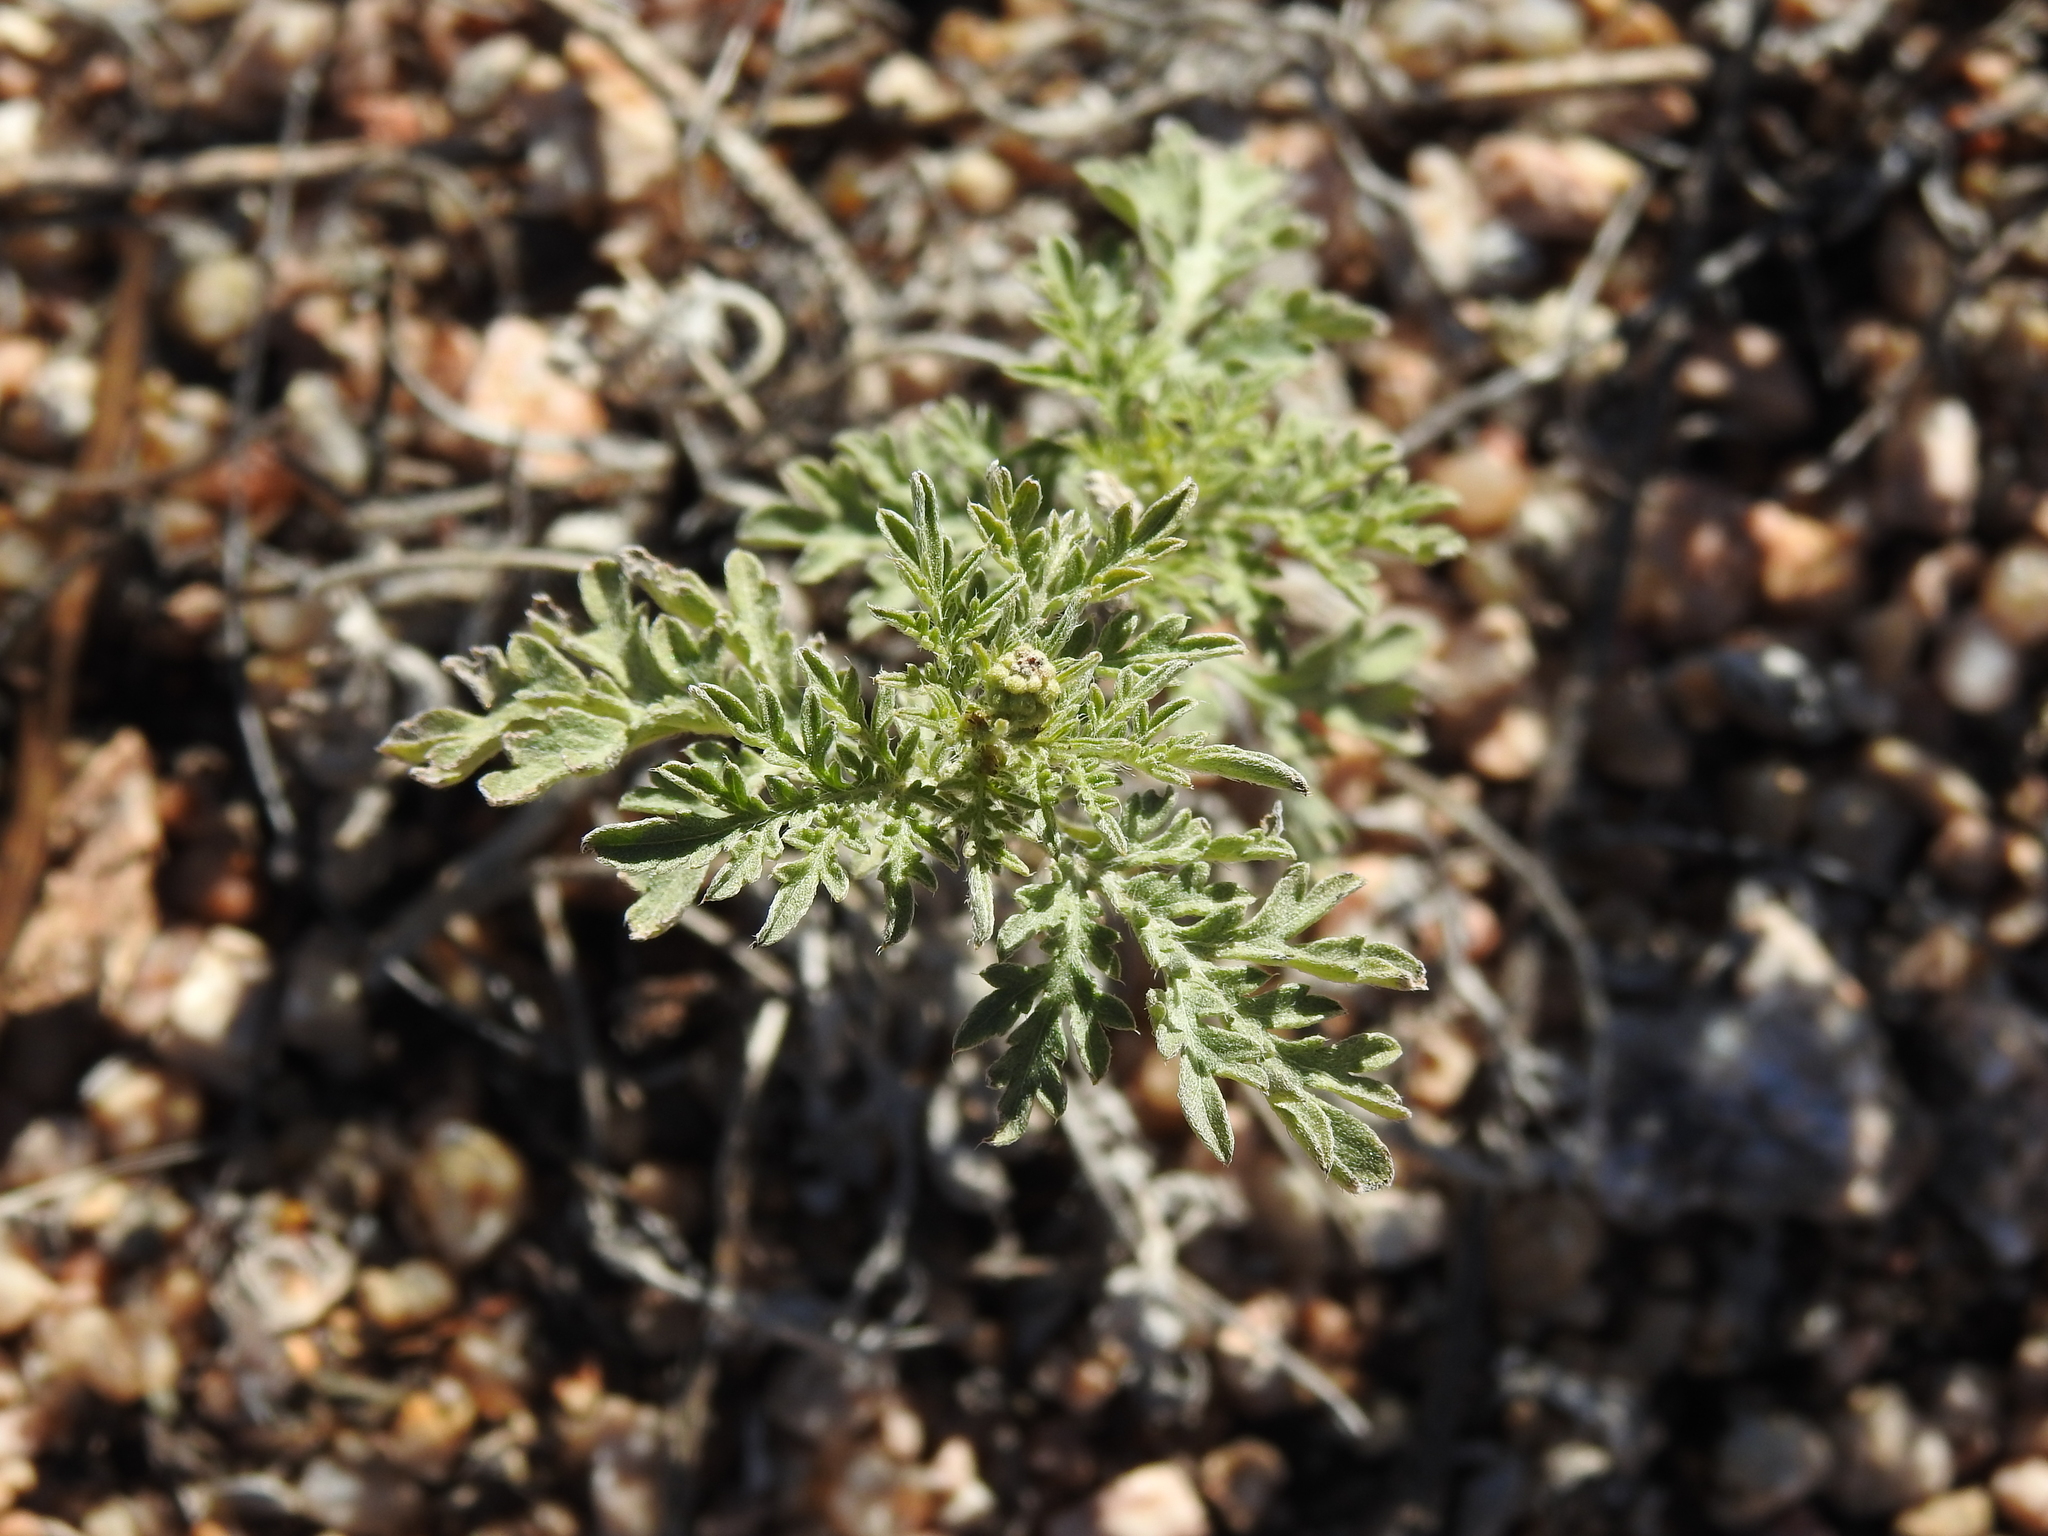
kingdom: Plantae
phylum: Tracheophyta
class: Magnoliopsida
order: Asterales
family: Asteraceae
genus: Ambrosia
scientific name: Ambrosia confertiflora
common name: Bur ragweed
